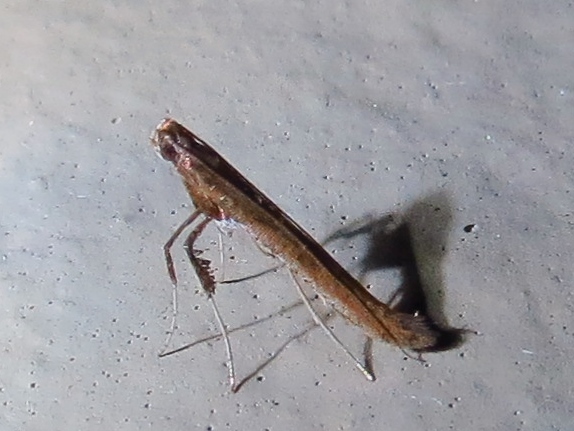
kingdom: Animalia
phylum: Arthropoda
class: Insecta
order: Lepidoptera
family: Gracillariidae
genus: Caloptilia
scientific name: Caloptilia rhoifoliella
